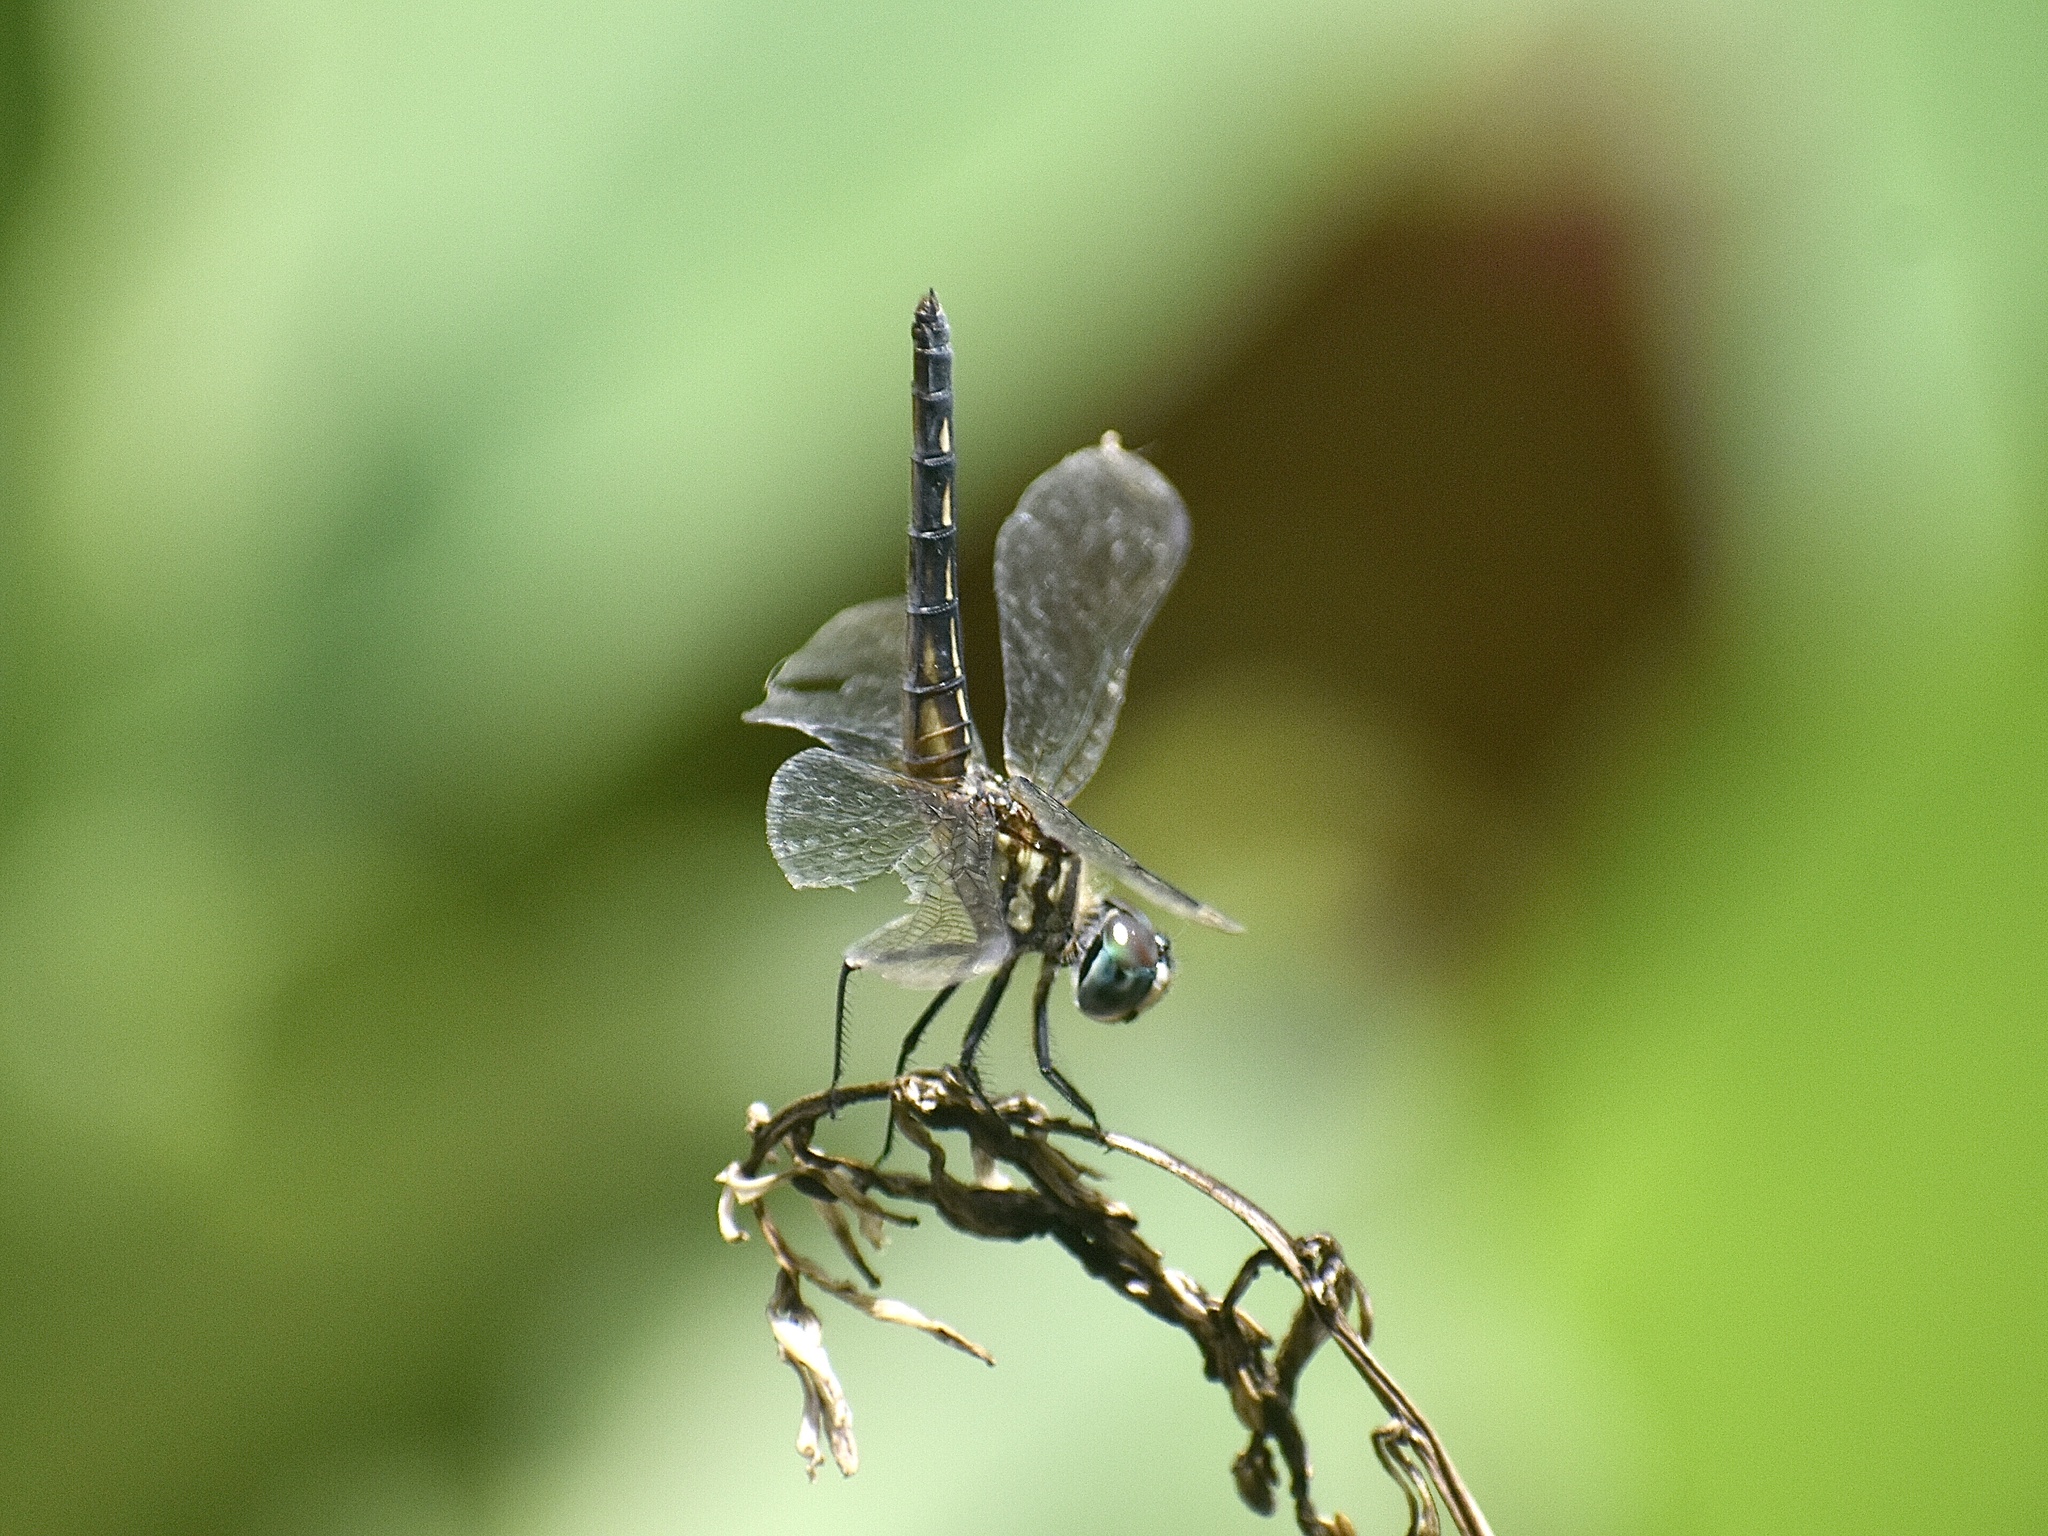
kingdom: Animalia
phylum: Arthropoda
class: Insecta
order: Odonata
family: Libellulidae
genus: Pachydiplax
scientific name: Pachydiplax longipennis
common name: Blue dasher
